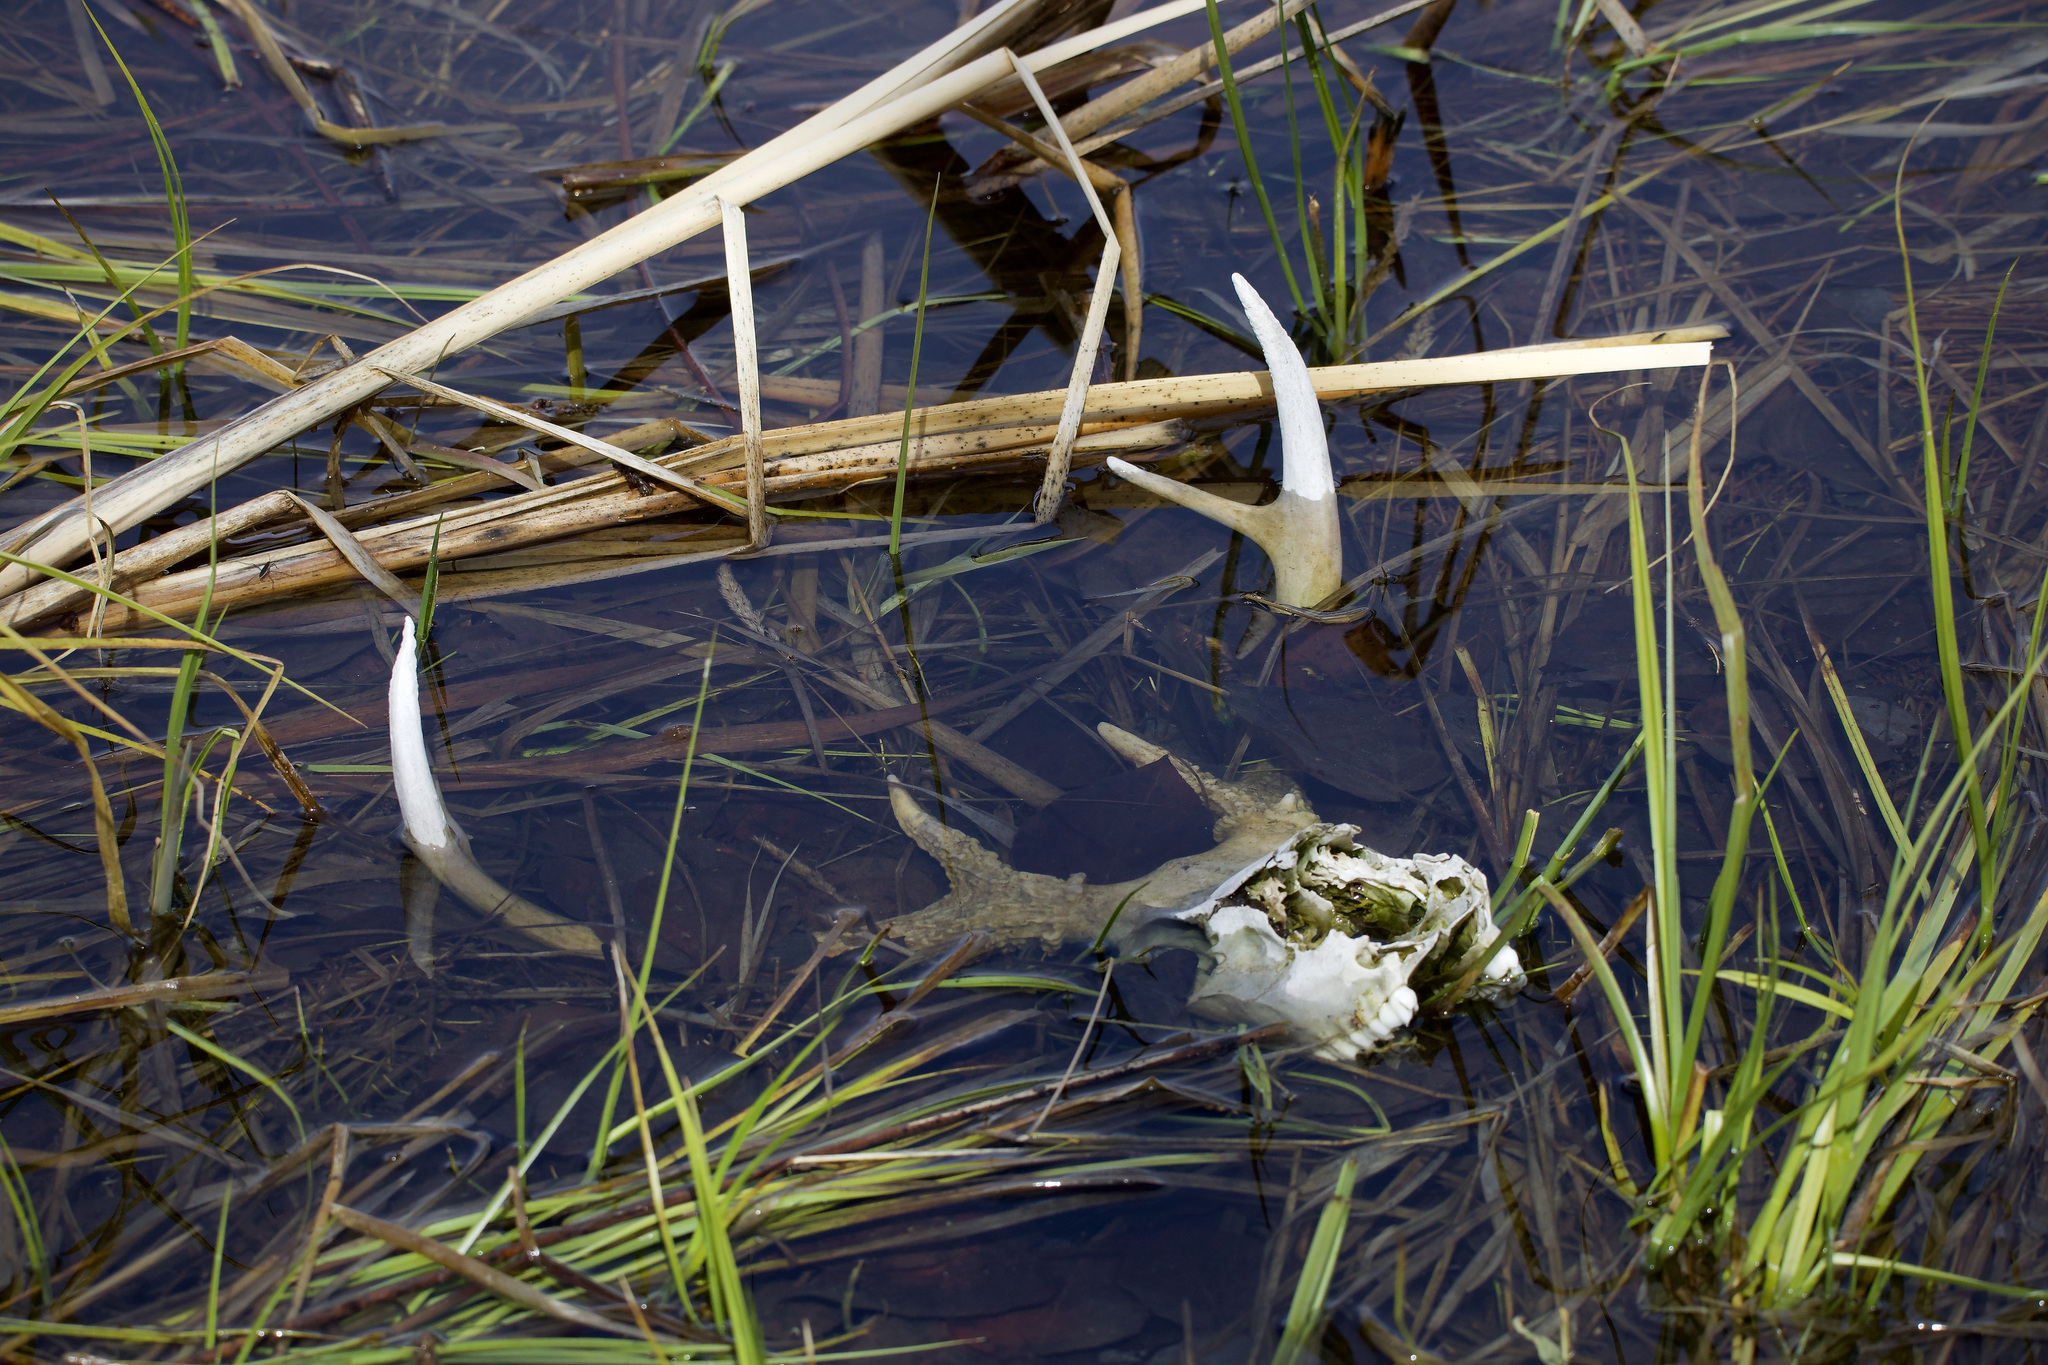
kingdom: Animalia
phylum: Chordata
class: Mammalia
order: Artiodactyla
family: Cervidae
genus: Odocoileus
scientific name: Odocoileus virginianus
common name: White-tailed deer
